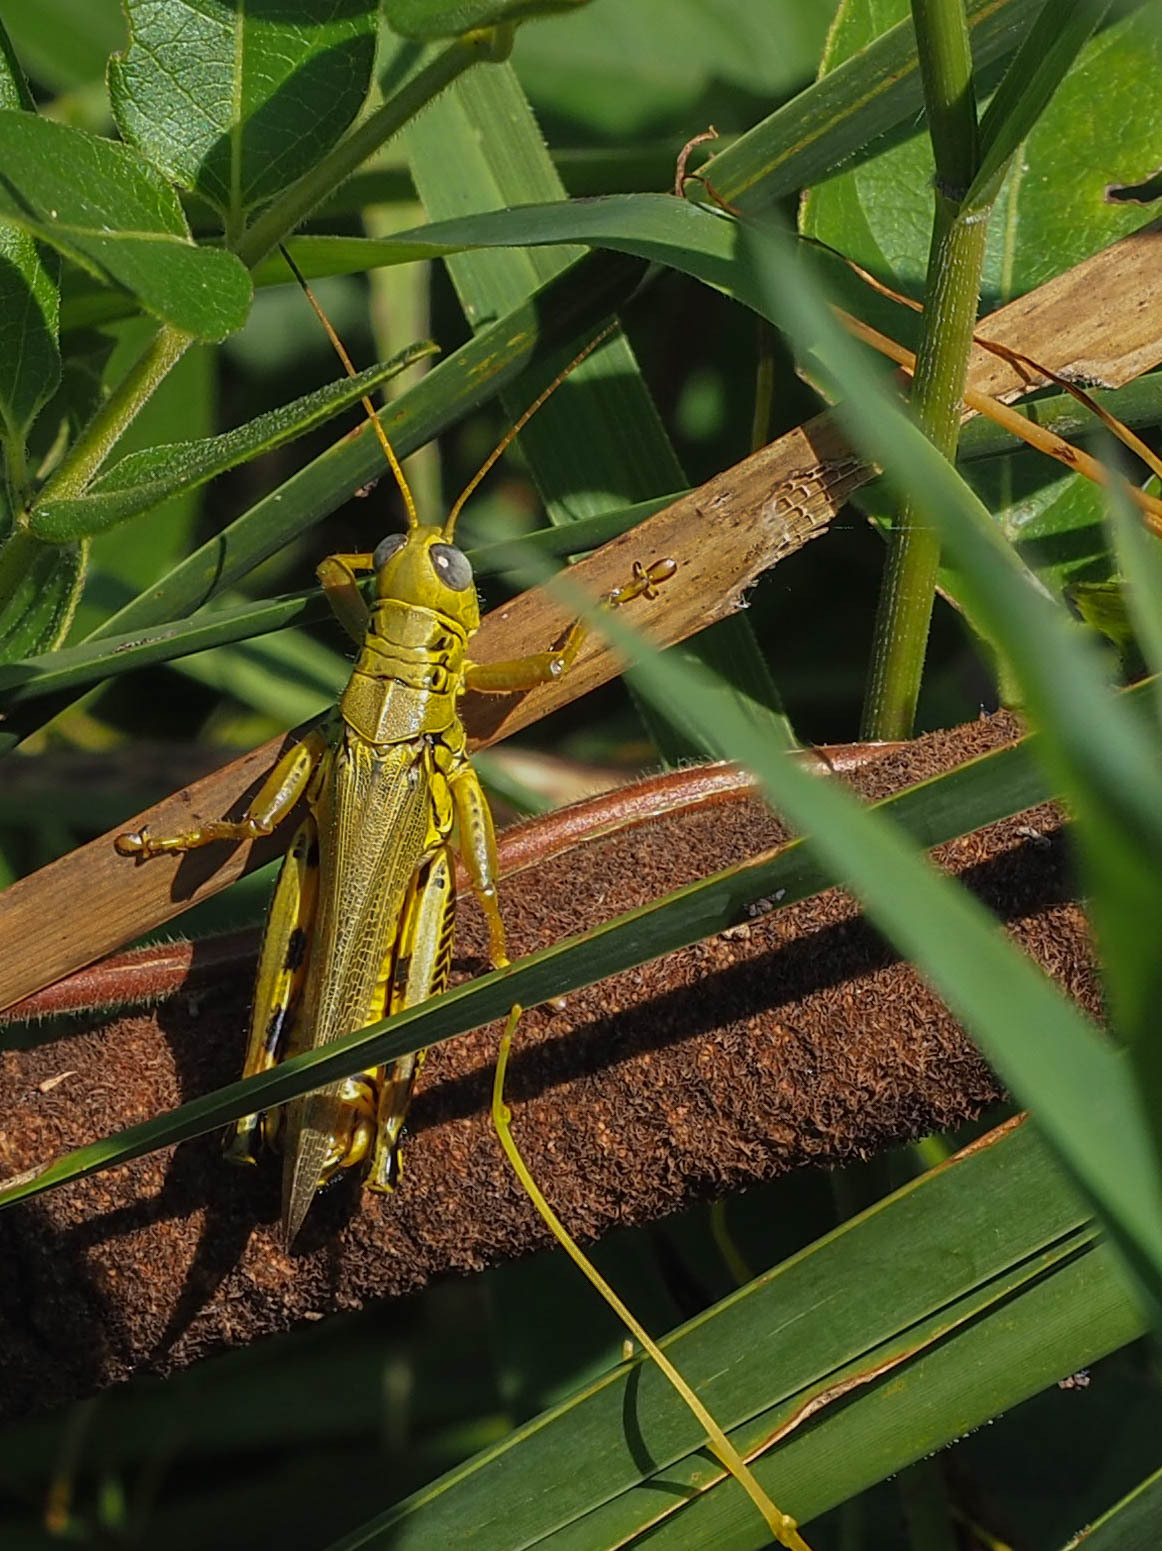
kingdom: Animalia
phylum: Arthropoda
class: Insecta
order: Orthoptera
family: Acrididae
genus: Melanoplus
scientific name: Melanoplus differentialis
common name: Differential grasshopper
